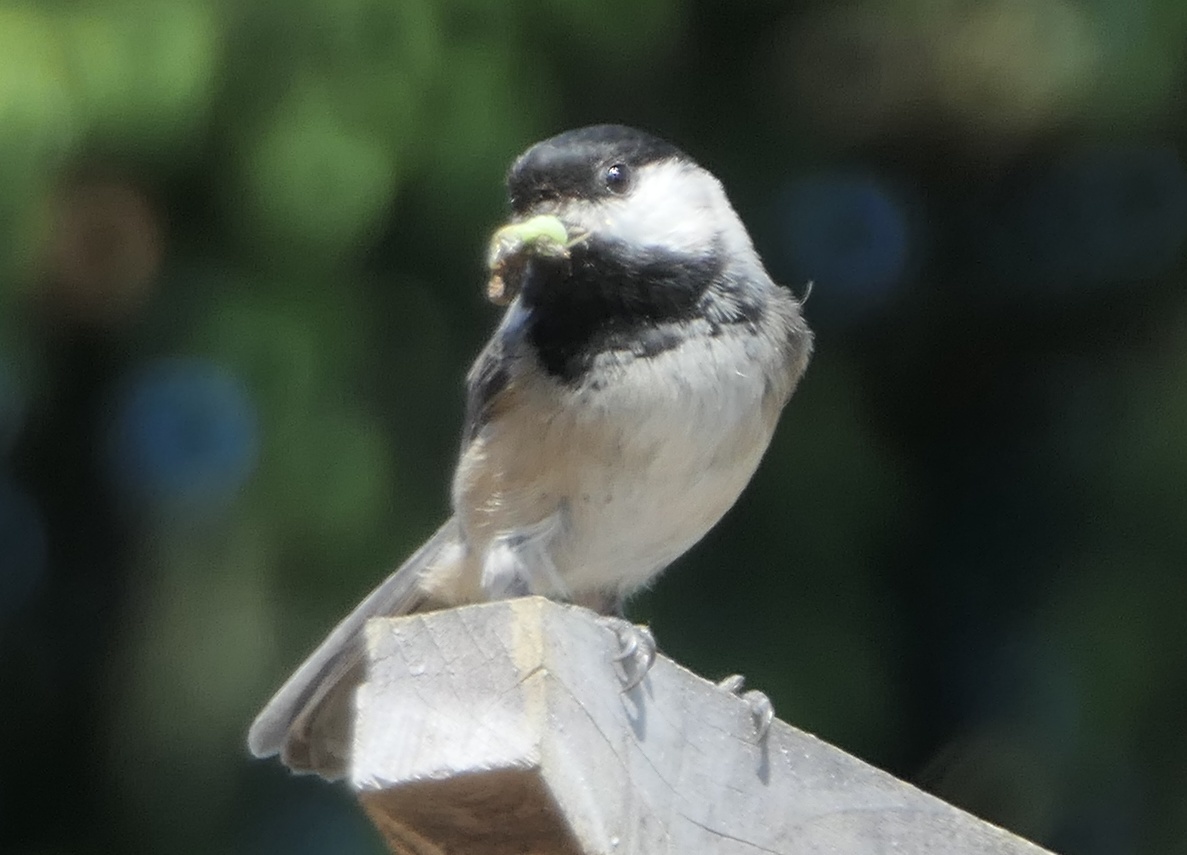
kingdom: Animalia
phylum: Chordata
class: Aves
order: Passeriformes
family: Paridae
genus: Poecile
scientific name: Poecile atricapillus
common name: Black-capped chickadee
